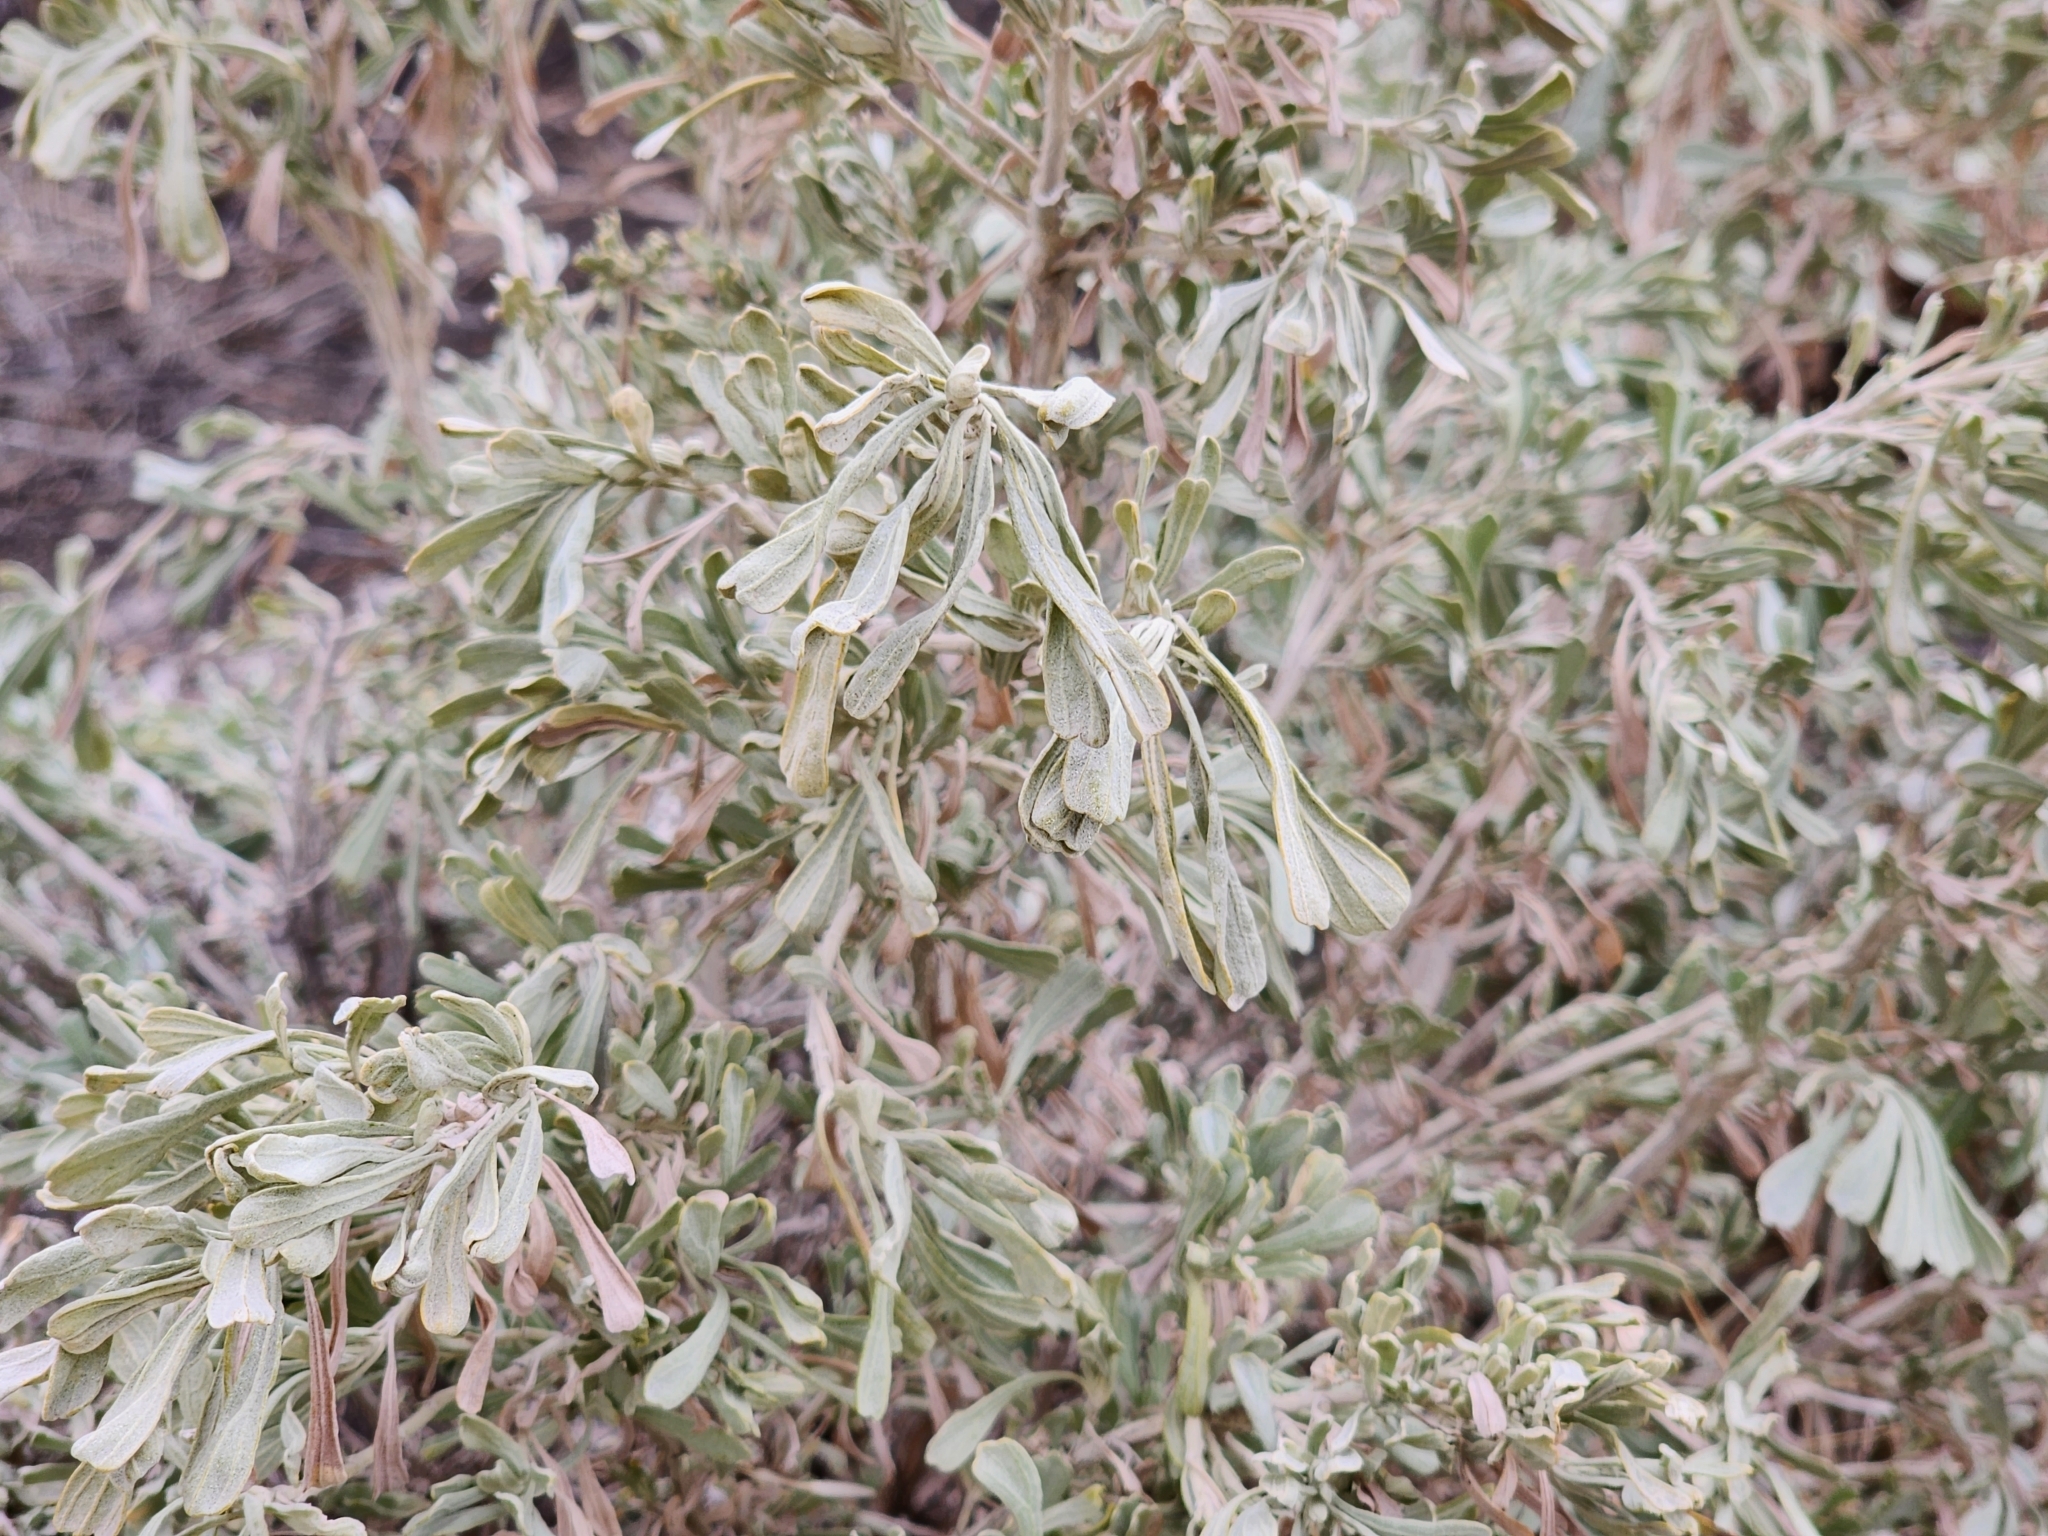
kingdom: Plantae
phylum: Tracheophyta
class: Magnoliopsida
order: Asterales
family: Asteraceae
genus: Artemisia
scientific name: Artemisia tridentata
